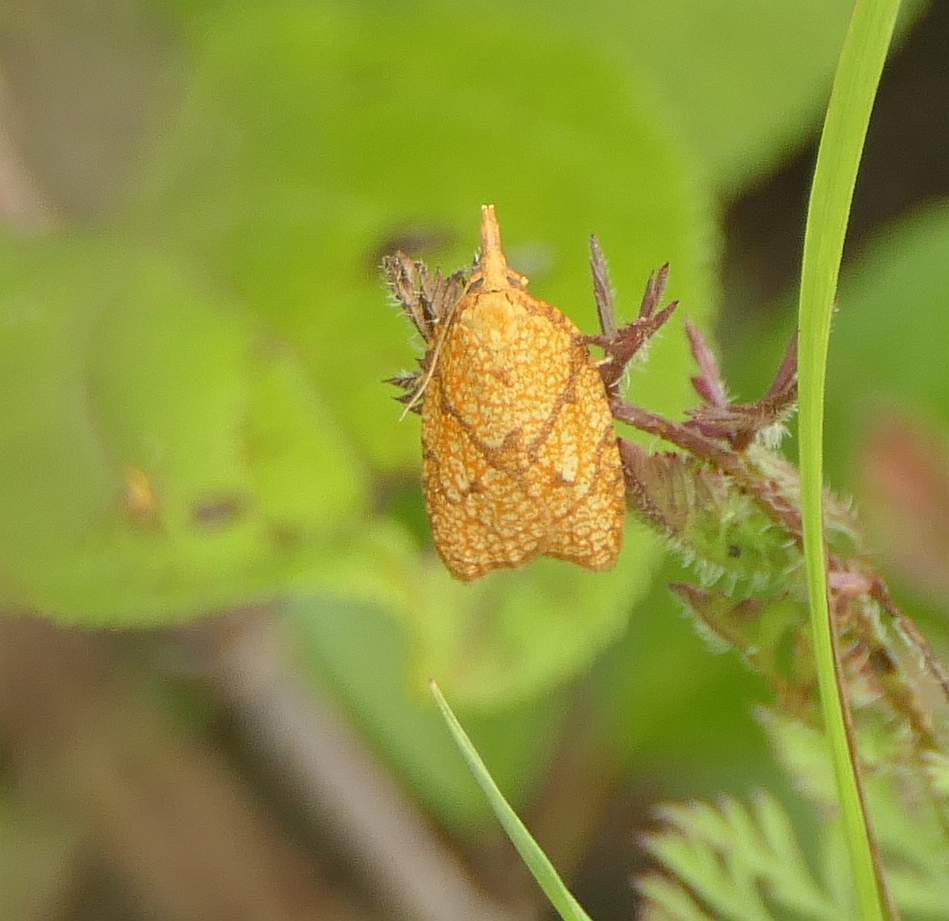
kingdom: Animalia
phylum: Arthropoda
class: Insecta
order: Lepidoptera
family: Tortricidae
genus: Cenopis
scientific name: Cenopis reticulatana
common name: Reticulated fruitworm moth
